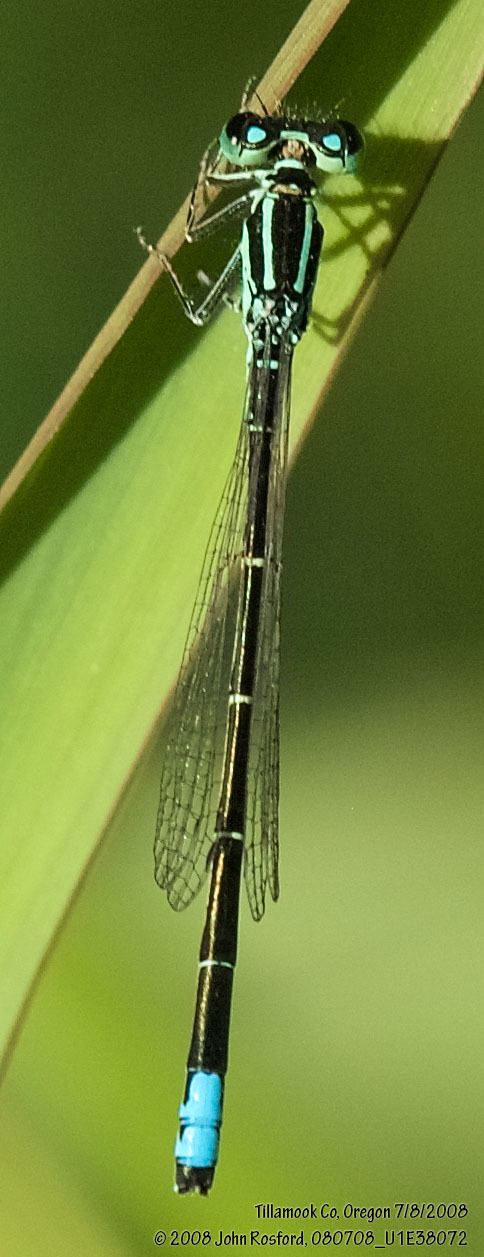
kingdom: Animalia
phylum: Arthropoda
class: Insecta
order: Odonata
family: Coenagrionidae
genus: Ischnura
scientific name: Ischnura perparva
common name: Western forktail
